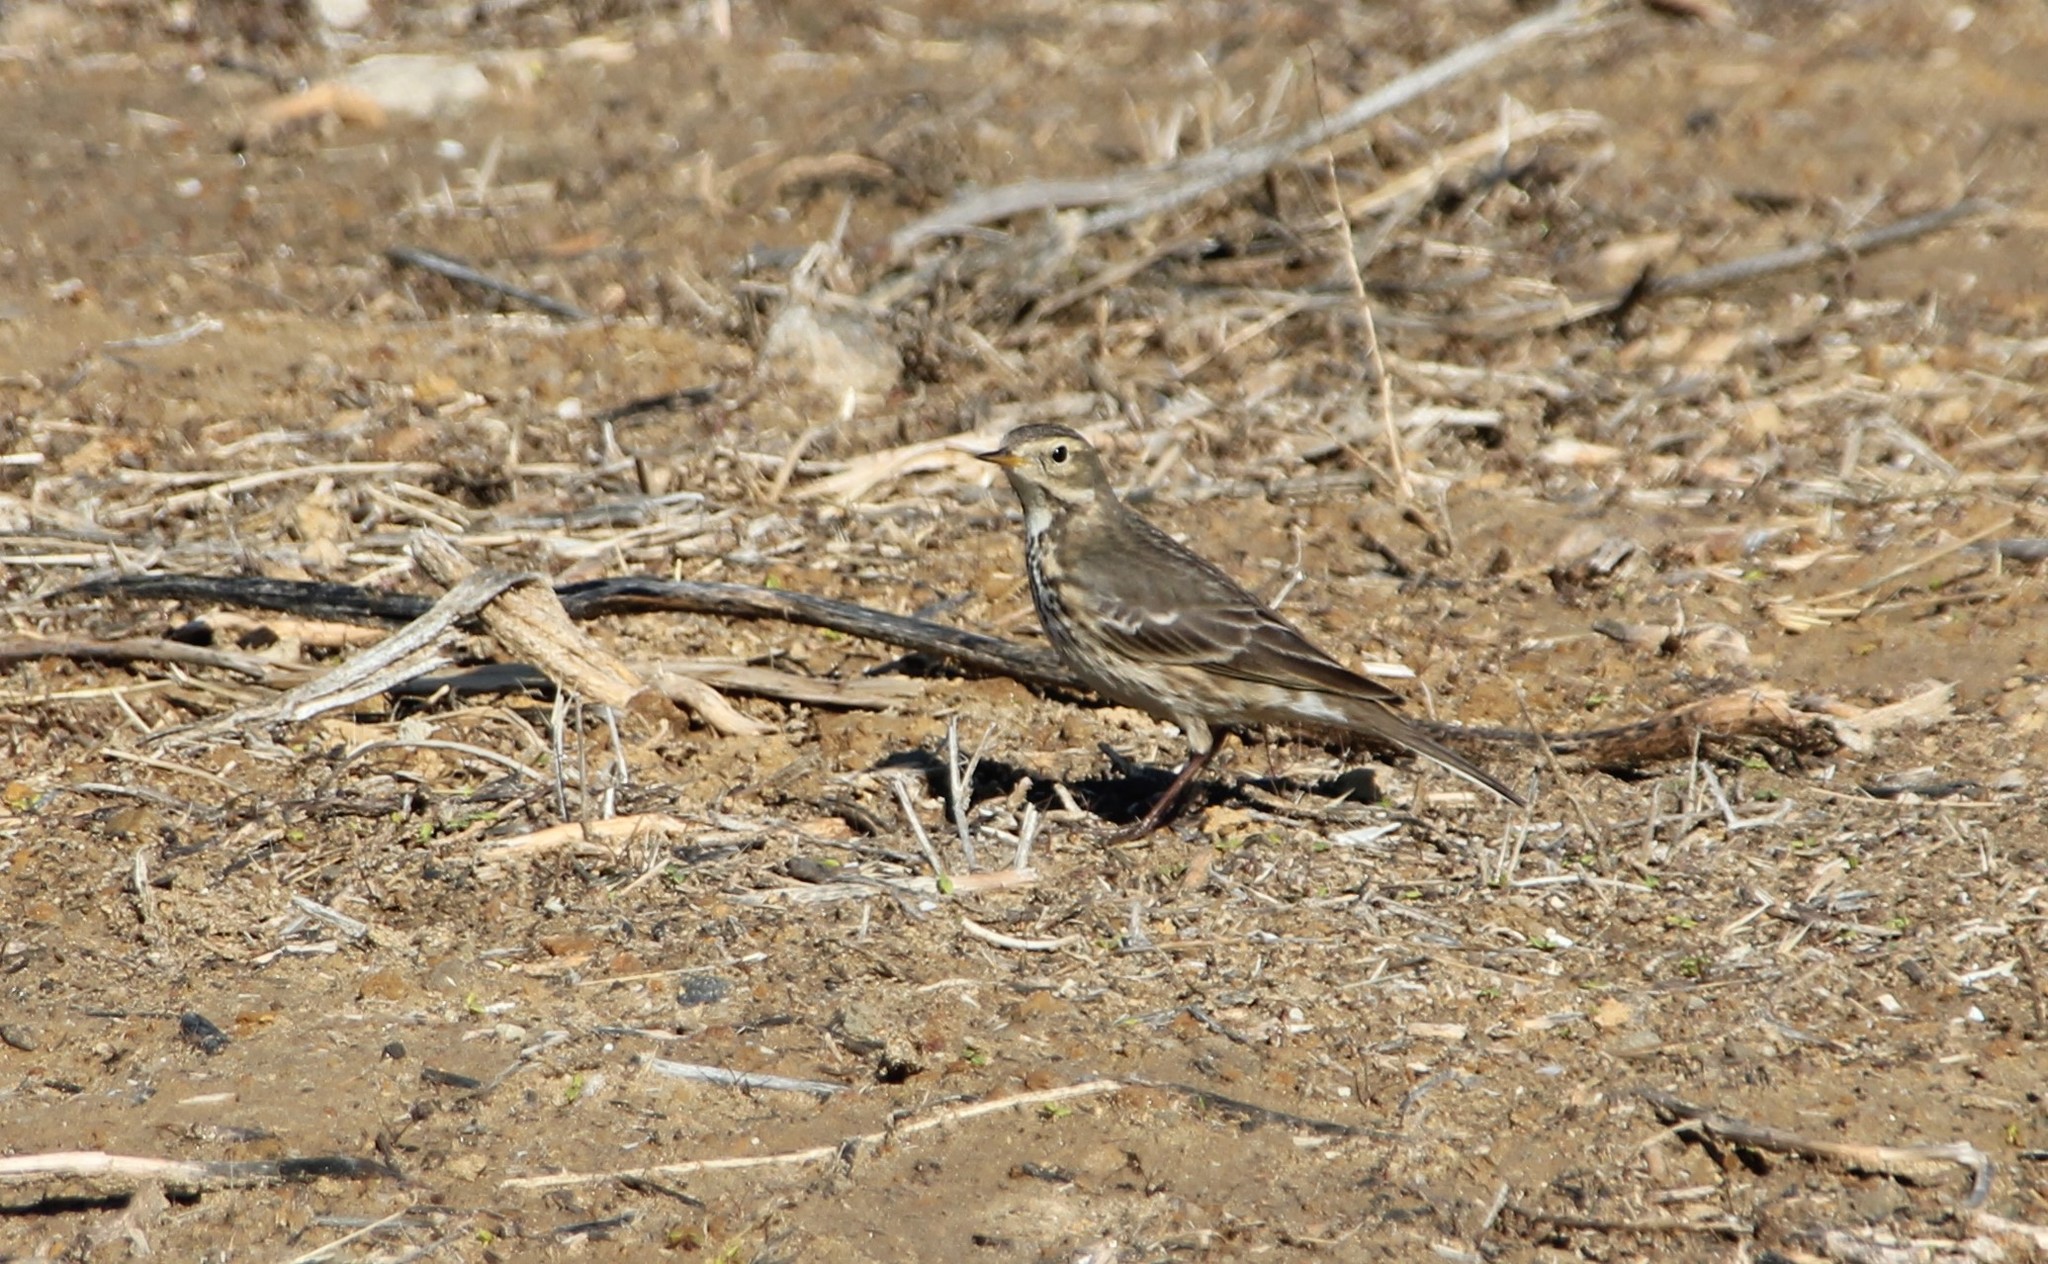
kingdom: Animalia
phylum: Chordata
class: Aves
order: Passeriformes
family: Motacillidae
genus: Anthus
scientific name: Anthus rubescens
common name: Buff-bellied pipit
